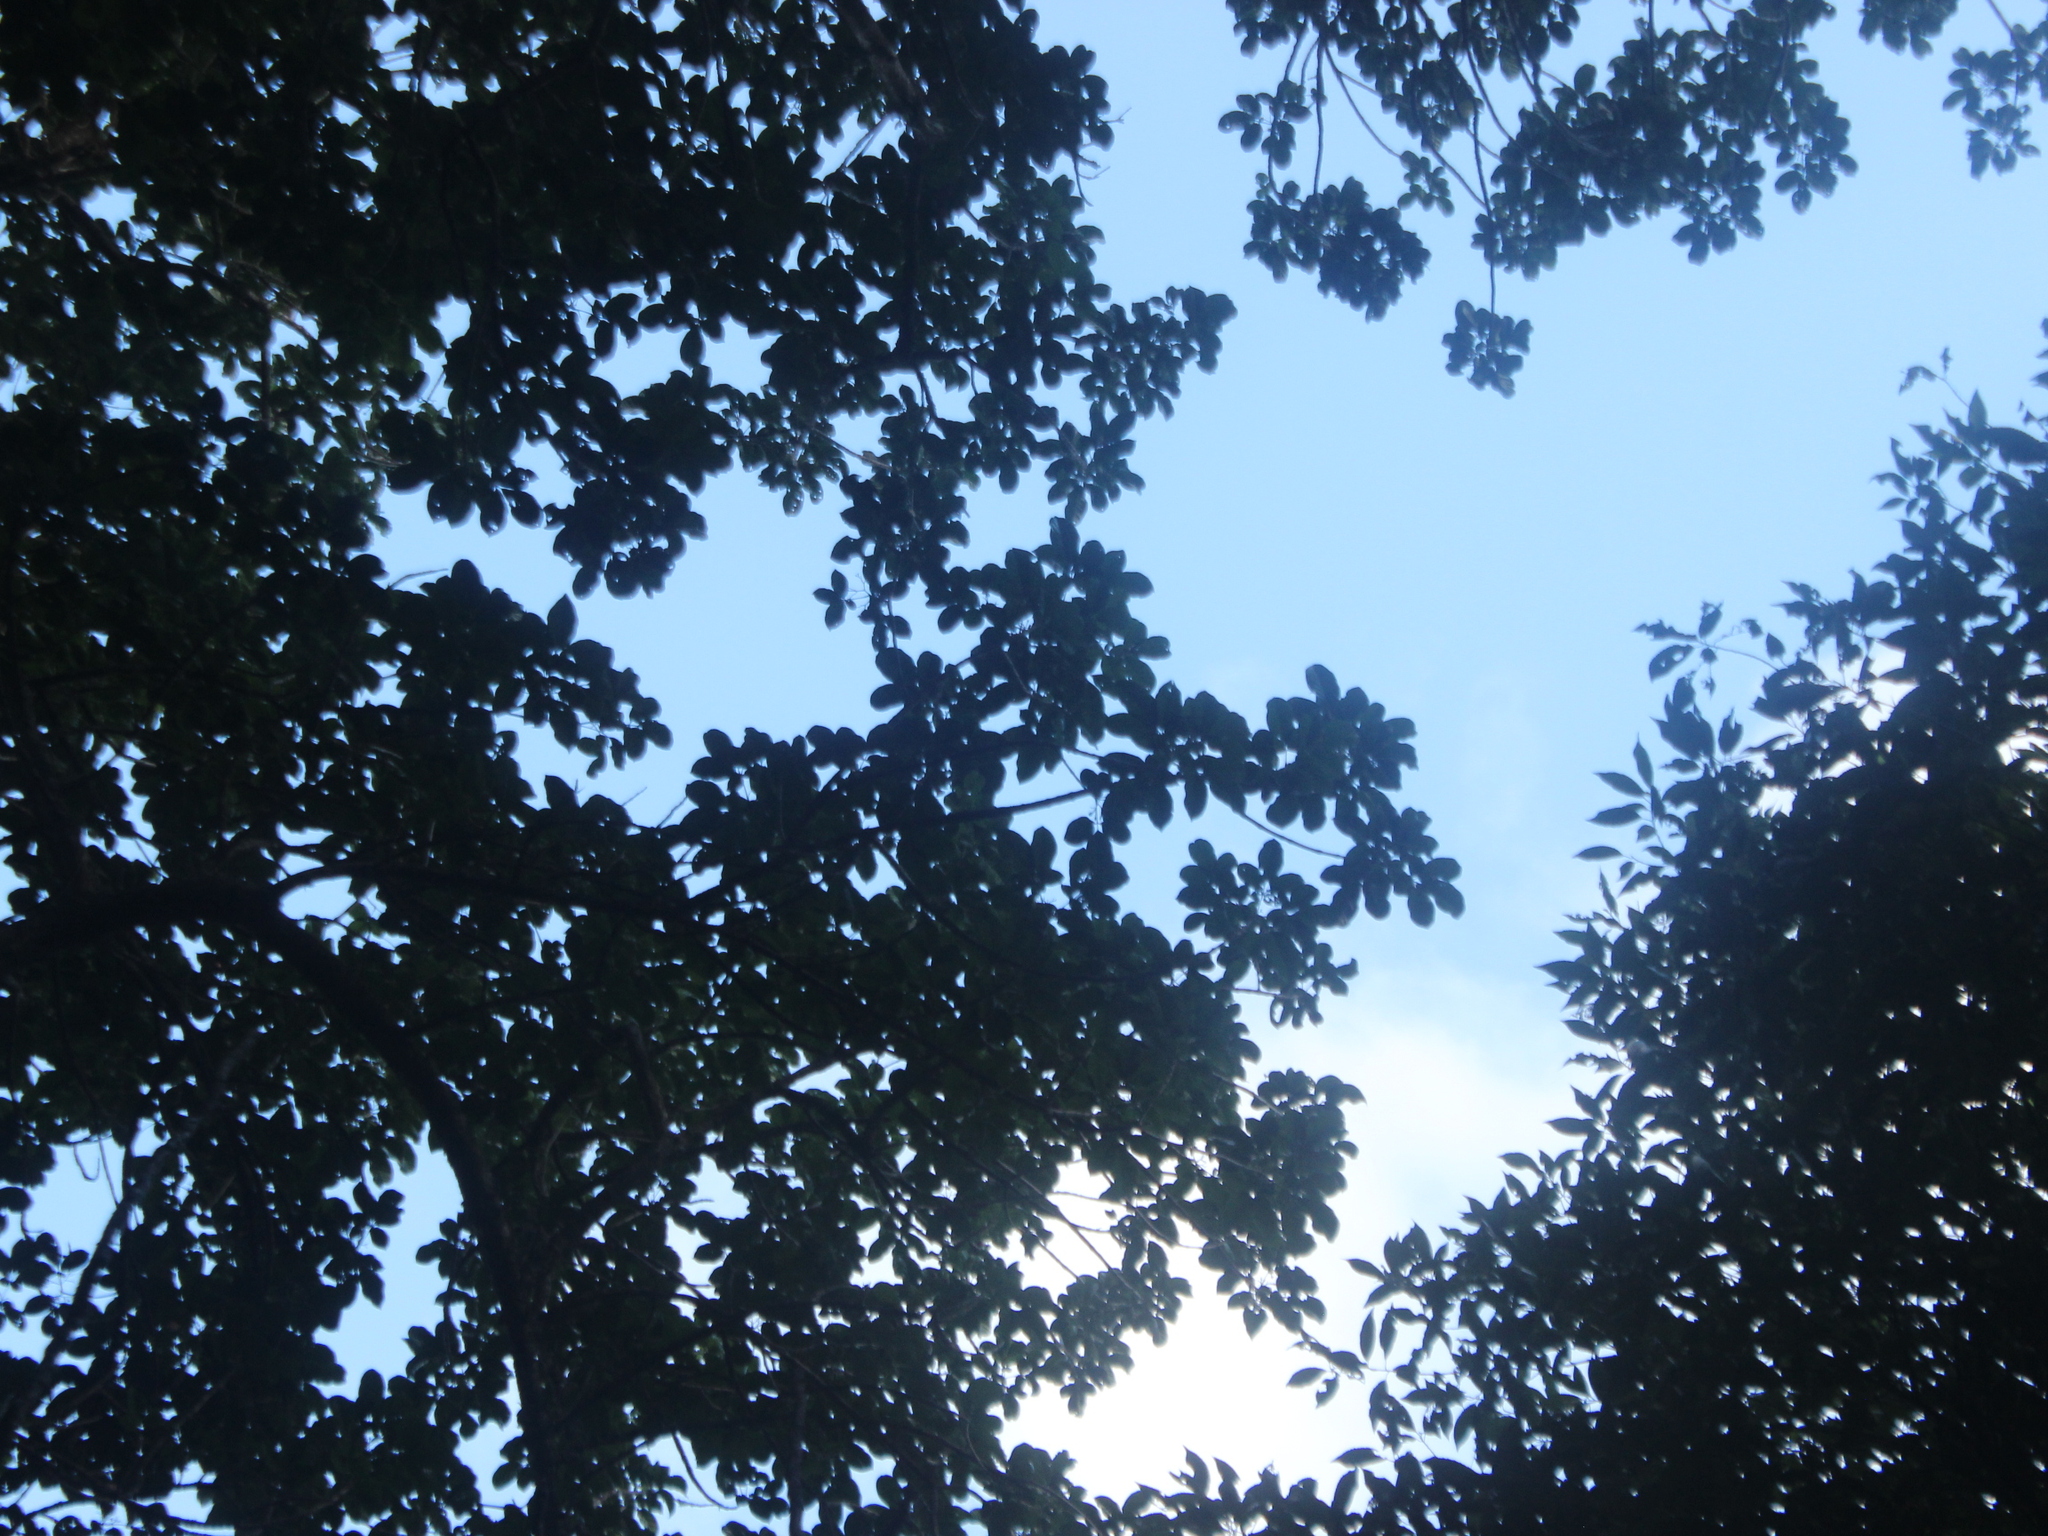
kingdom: Plantae
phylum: Tracheophyta
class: Magnoliopsida
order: Lamiales
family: Lamiaceae
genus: Vitex
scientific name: Vitex lucens
